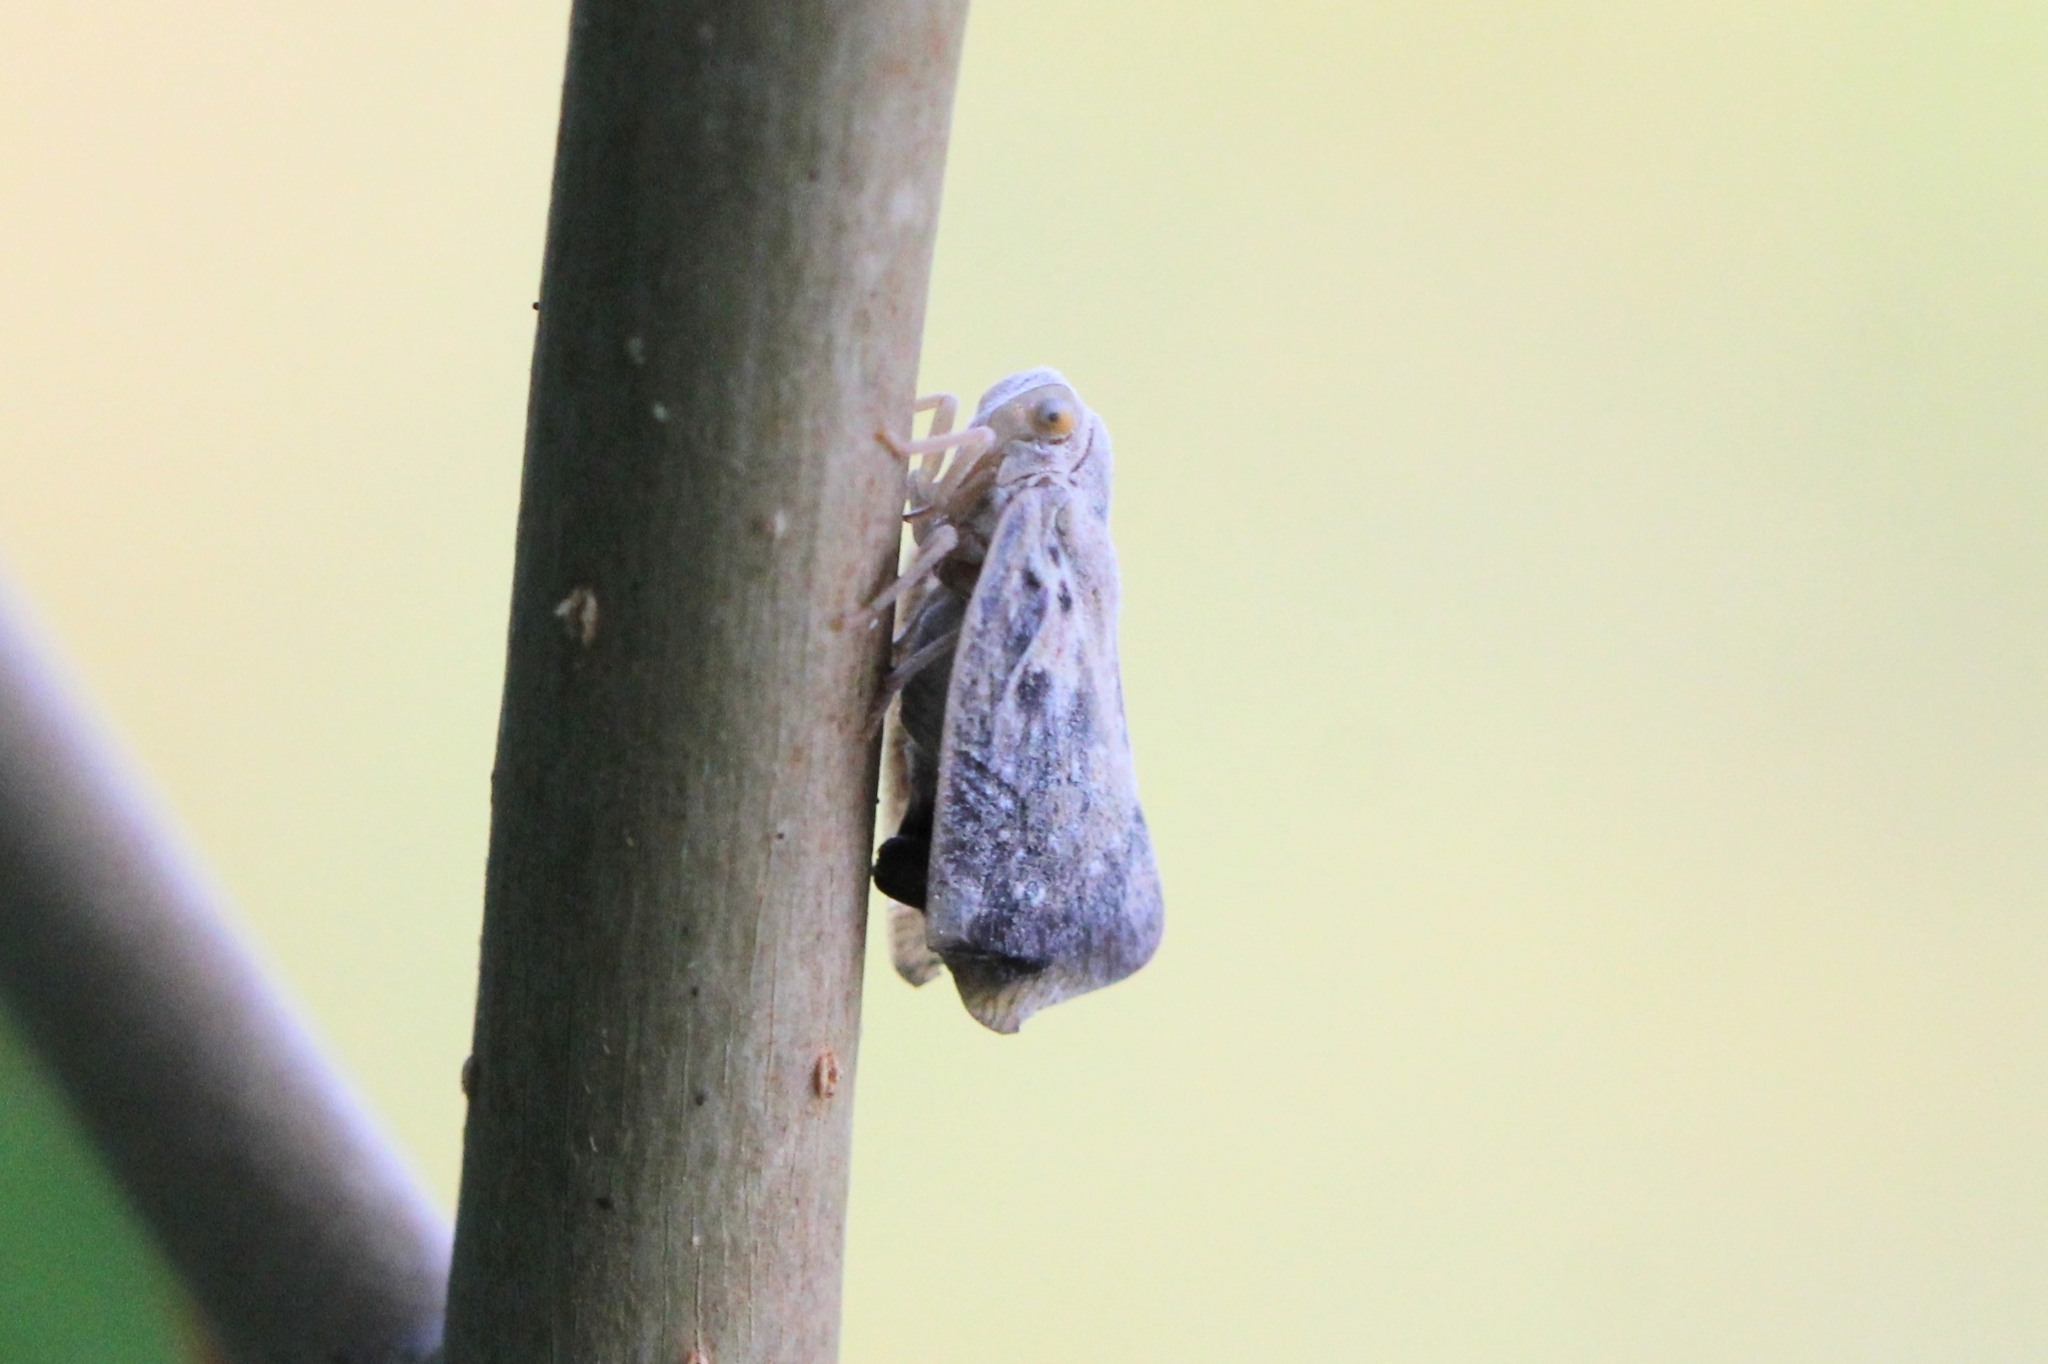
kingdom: Animalia
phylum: Arthropoda
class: Insecta
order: Hemiptera
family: Flatidae
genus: Metcalfa
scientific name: Metcalfa pruinosa
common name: Citrus flatid planthopper
